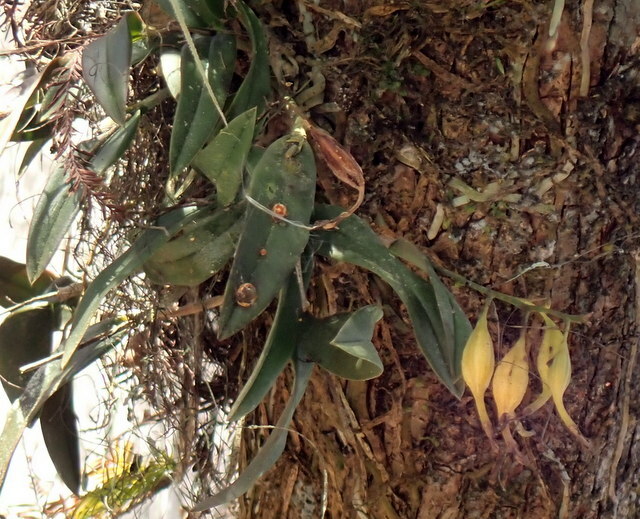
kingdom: Plantae
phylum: Tracheophyta
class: Liliopsida
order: Asparagales
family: Orchidaceae
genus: Epidendrum
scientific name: Epidendrum conopseum
